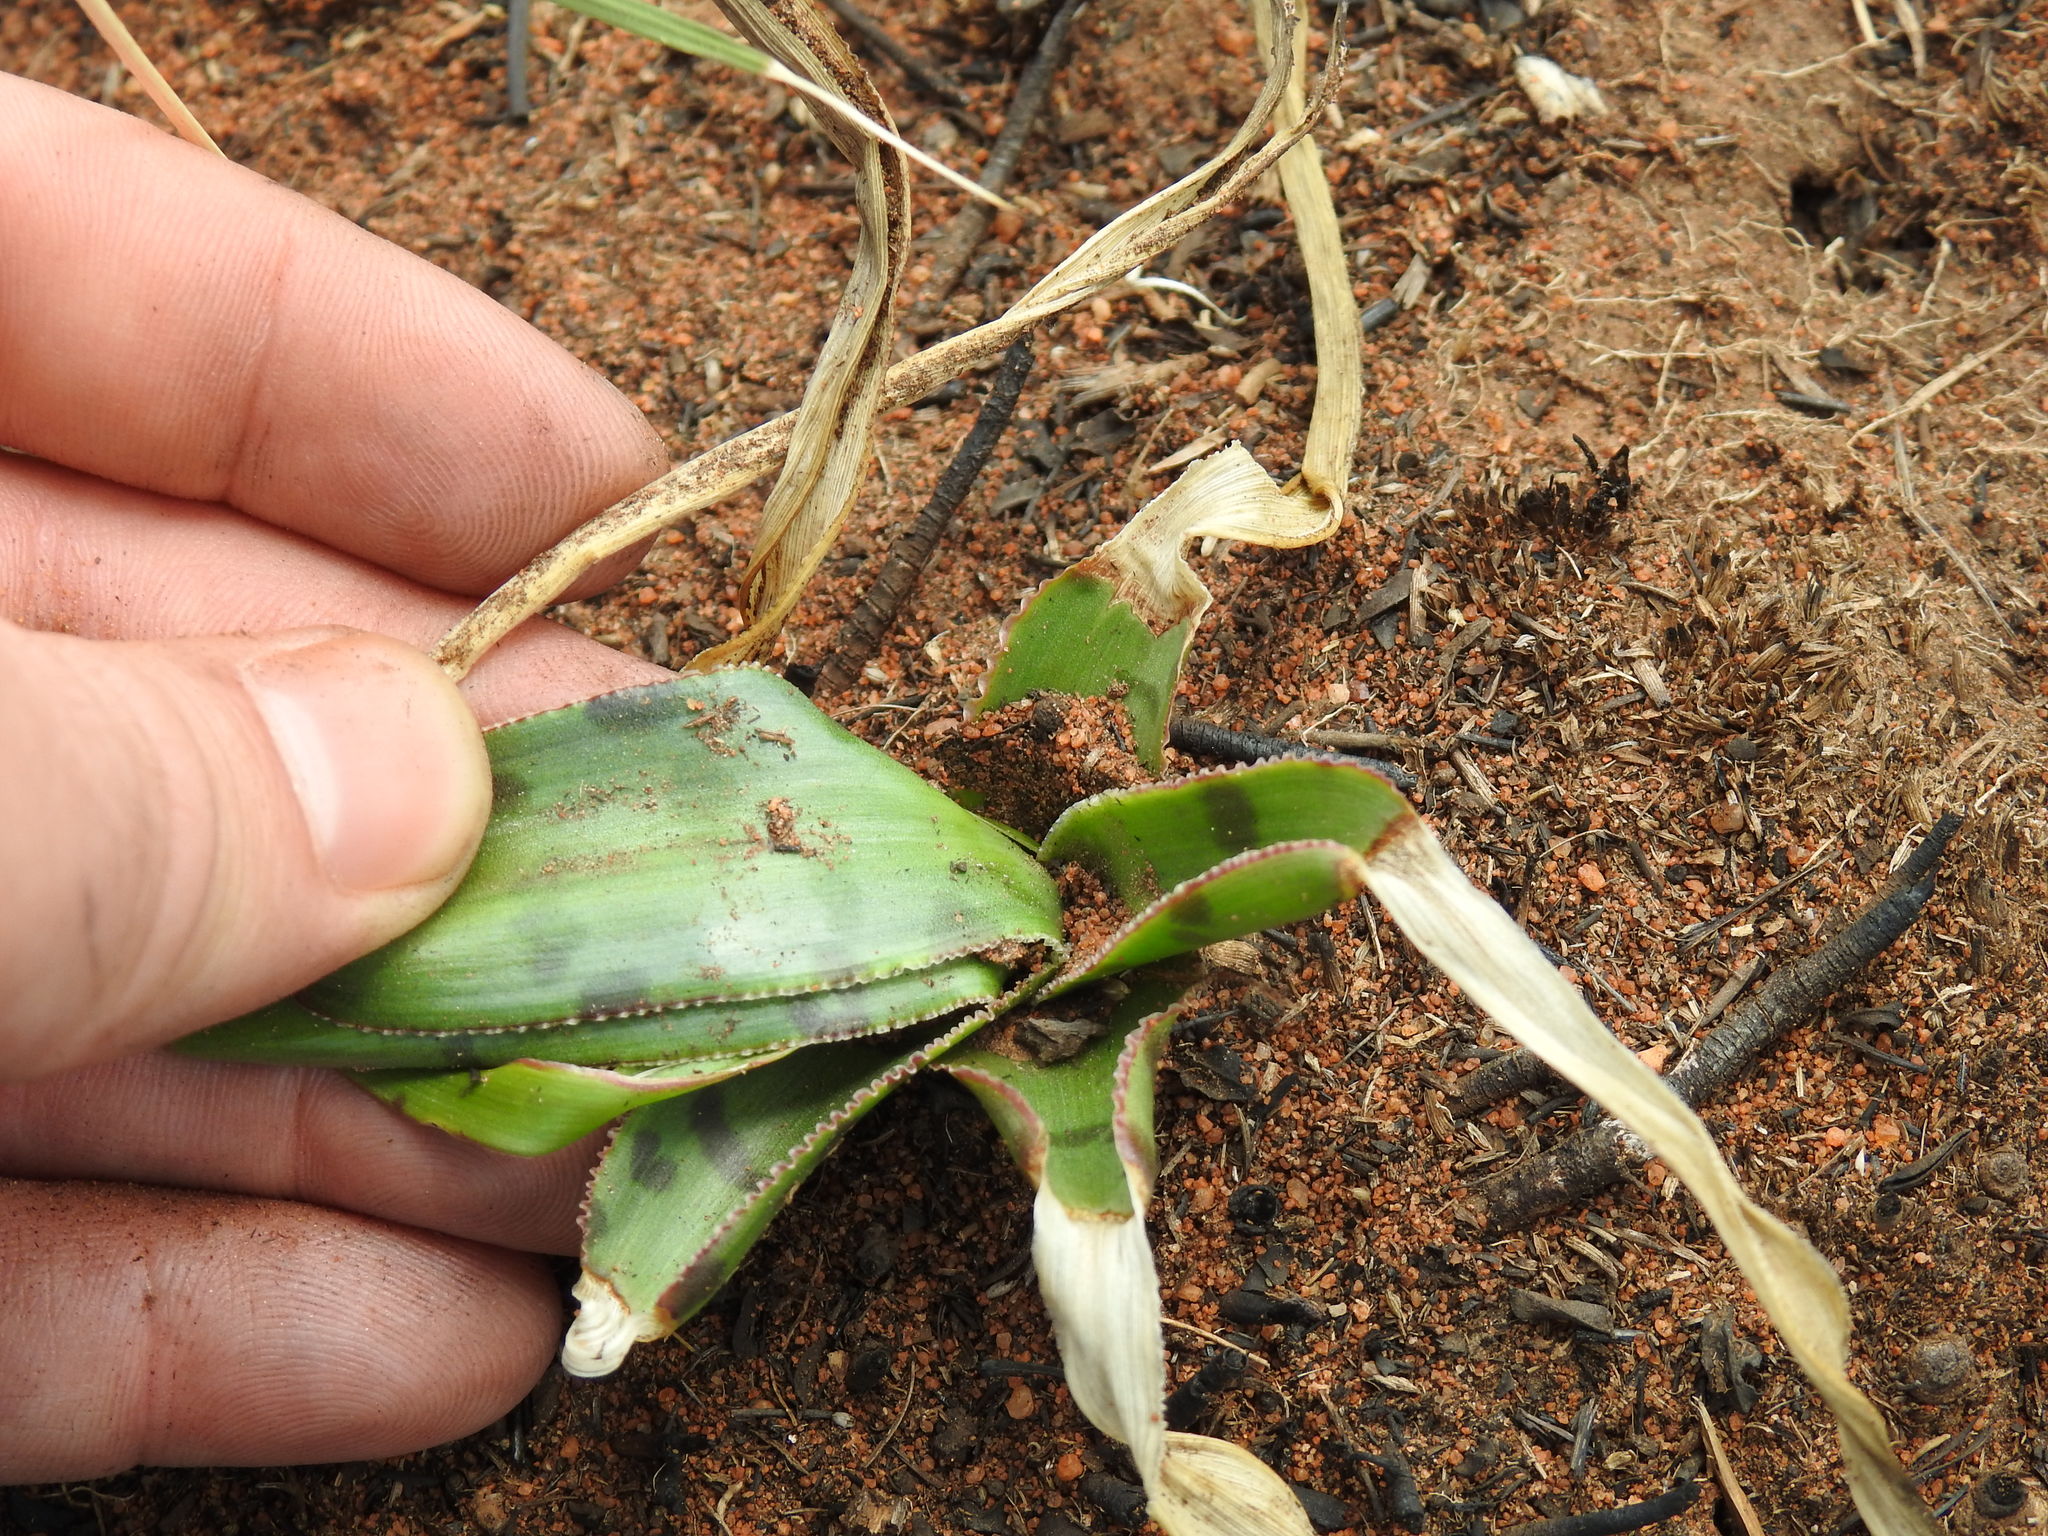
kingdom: Plantae
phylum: Tracheophyta
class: Liliopsida
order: Asparagales
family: Asparagaceae
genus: Ledebouria
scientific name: Ledebouria luteola
